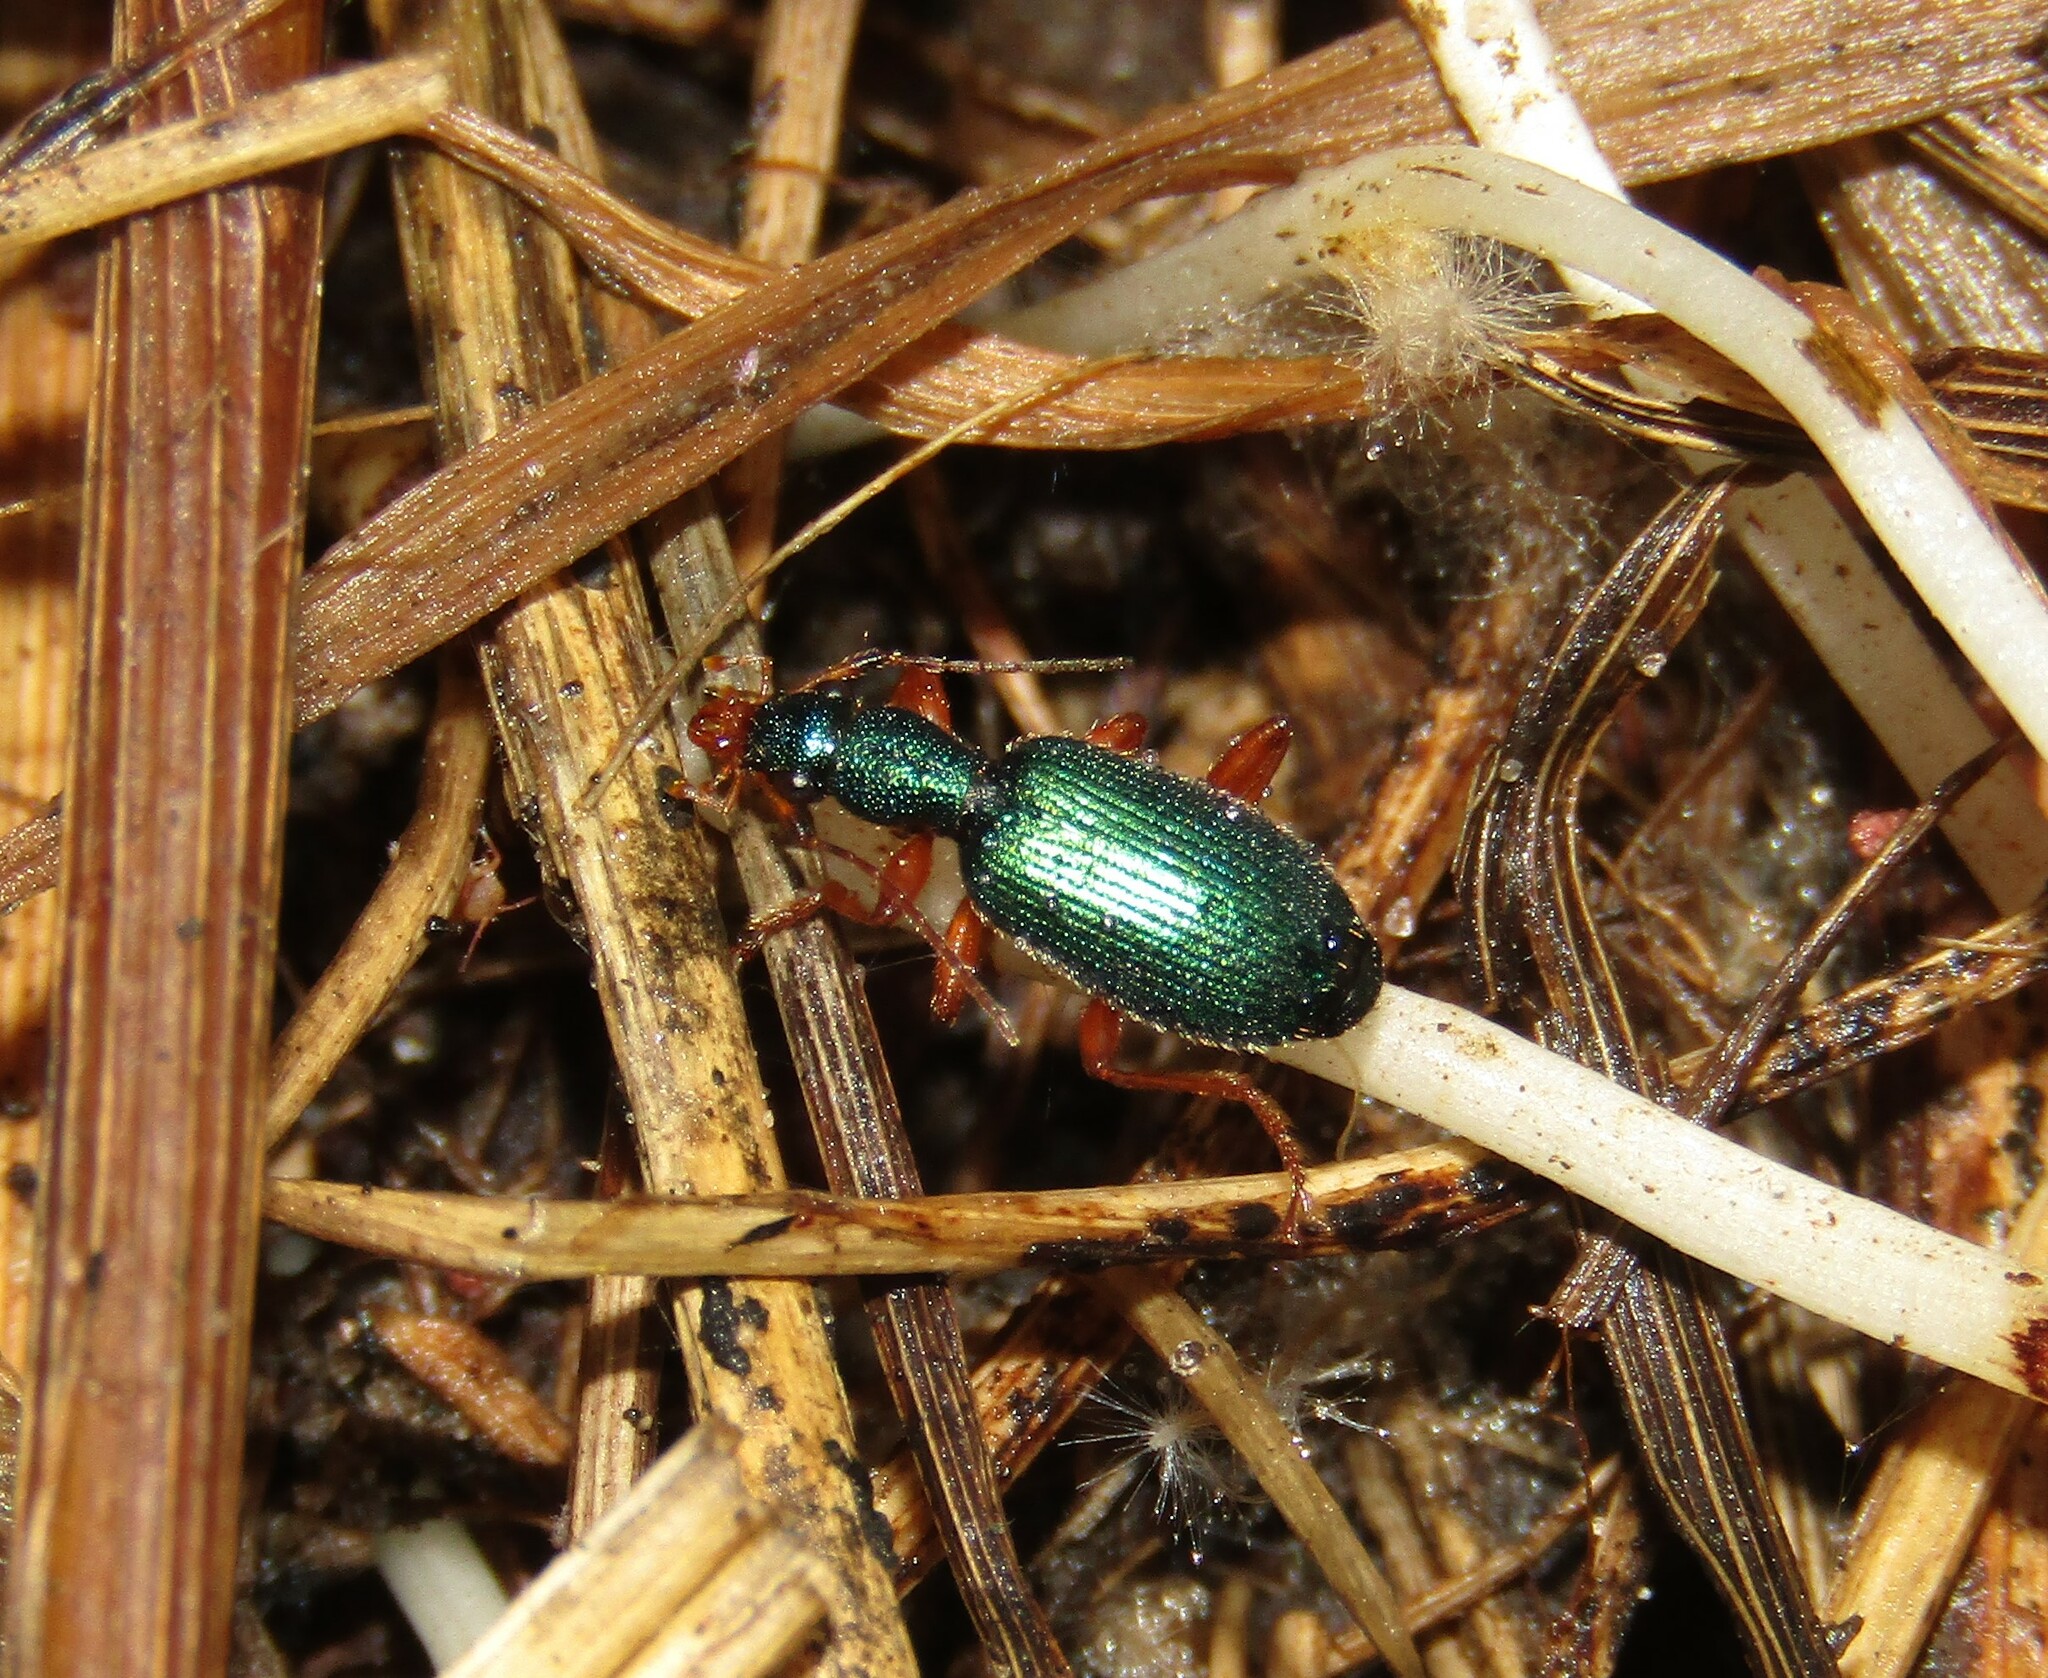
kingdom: Animalia
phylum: Arthropoda
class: Insecta
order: Coleoptera
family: Carabidae
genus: Drypta
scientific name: Drypta dentata
